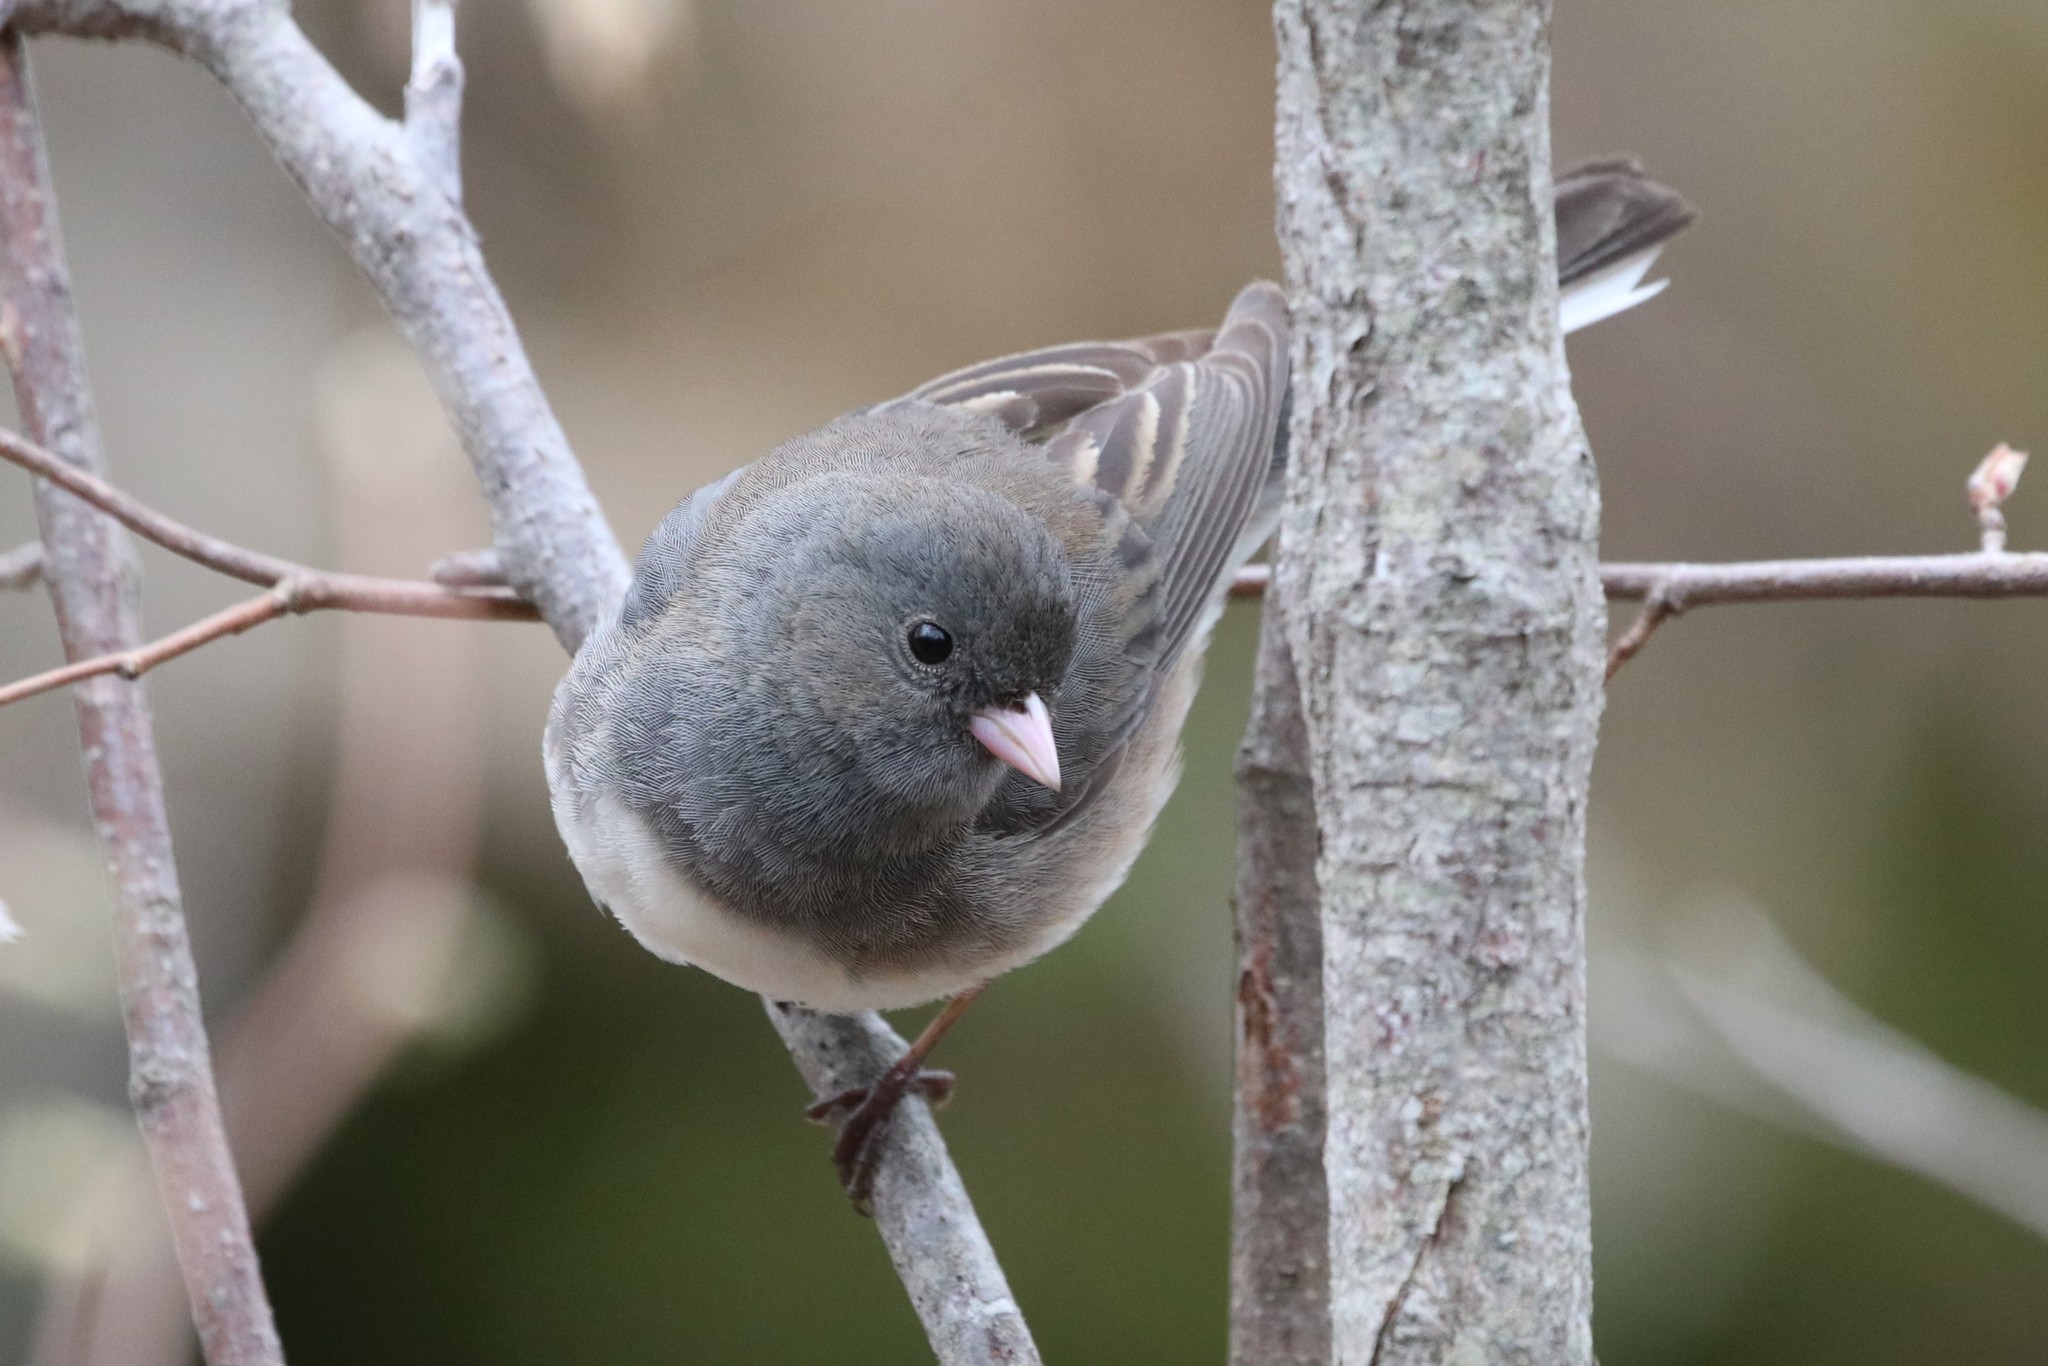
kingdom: Animalia
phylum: Chordata
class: Aves
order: Passeriformes
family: Passerellidae
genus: Junco
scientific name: Junco hyemalis
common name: Dark-eyed junco
